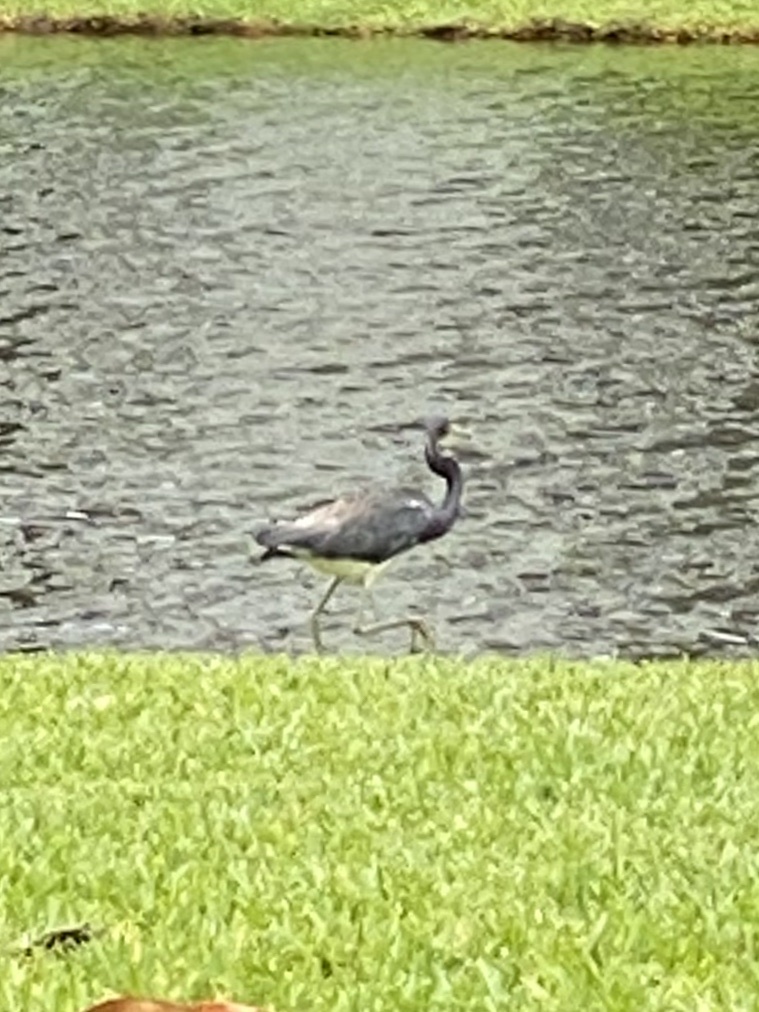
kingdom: Animalia
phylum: Chordata
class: Aves
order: Pelecaniformes
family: Ardeidae
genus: Egretta
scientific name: Egretta tricolor
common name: Tricolored heron
